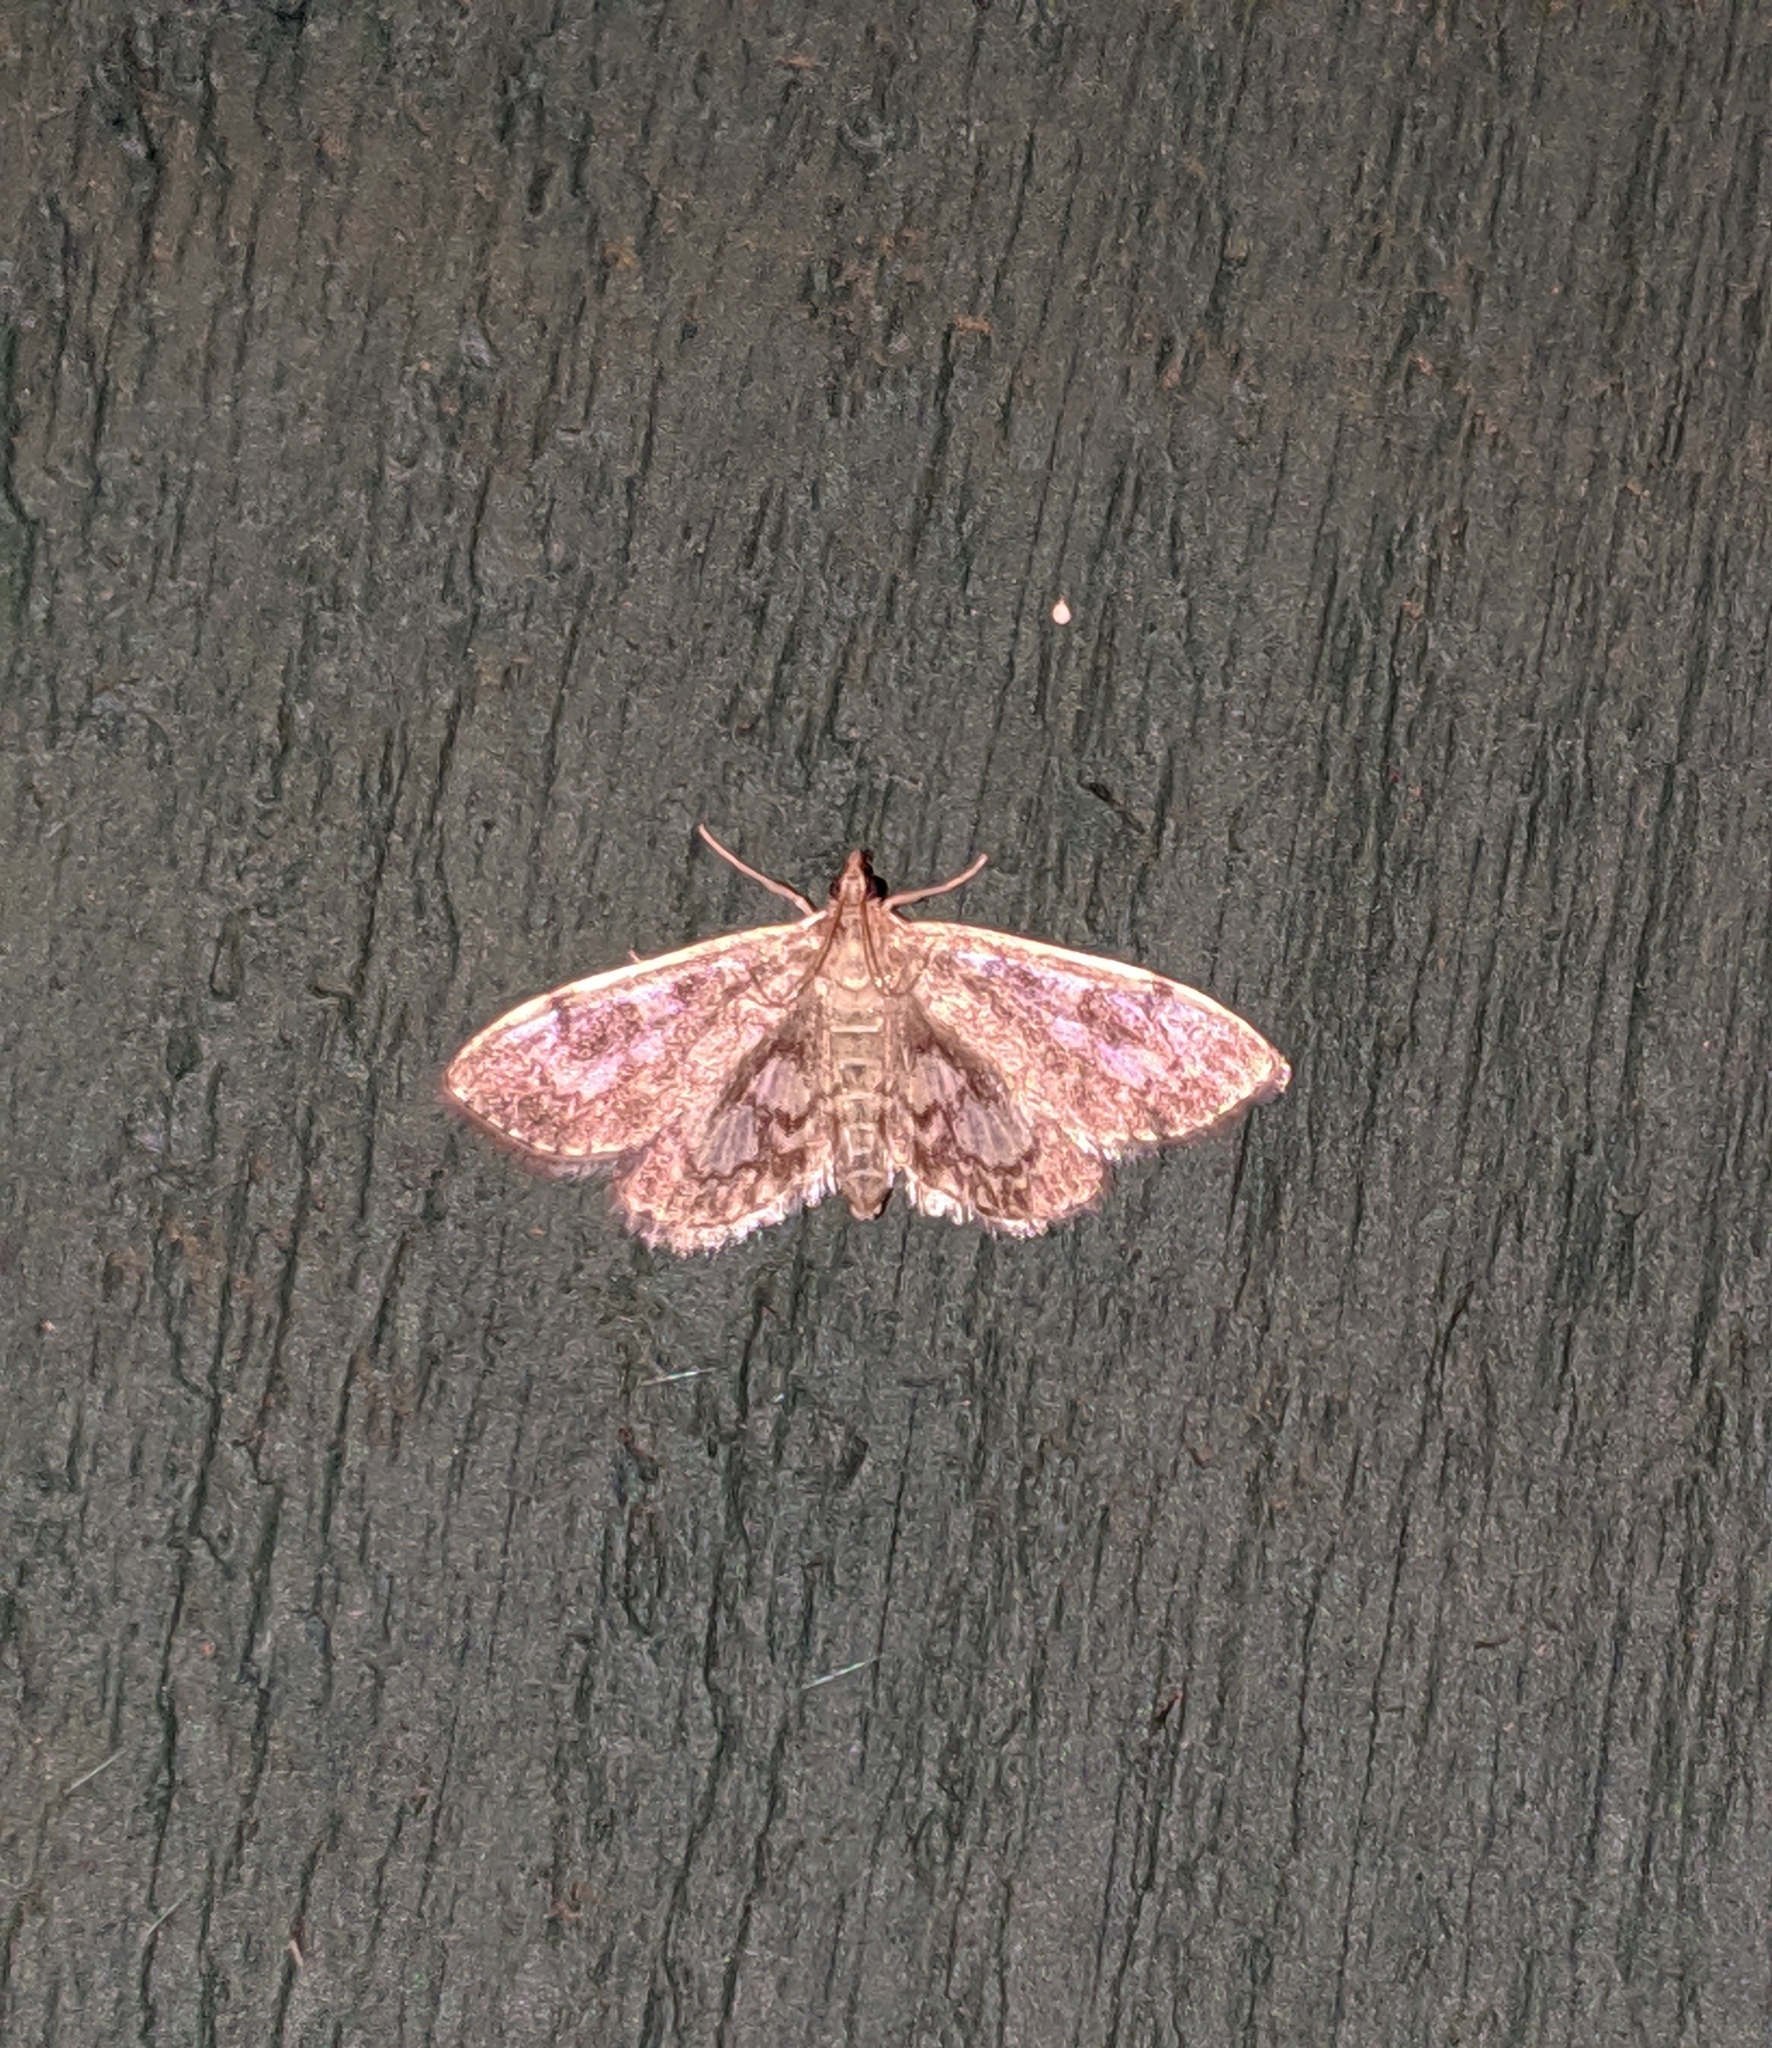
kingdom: Animalia
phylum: Arthropoda
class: Insecta
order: Lepidoptera
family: Crambidae
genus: Anania
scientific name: Anania tertialis
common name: Crowned phylctaenia moth
